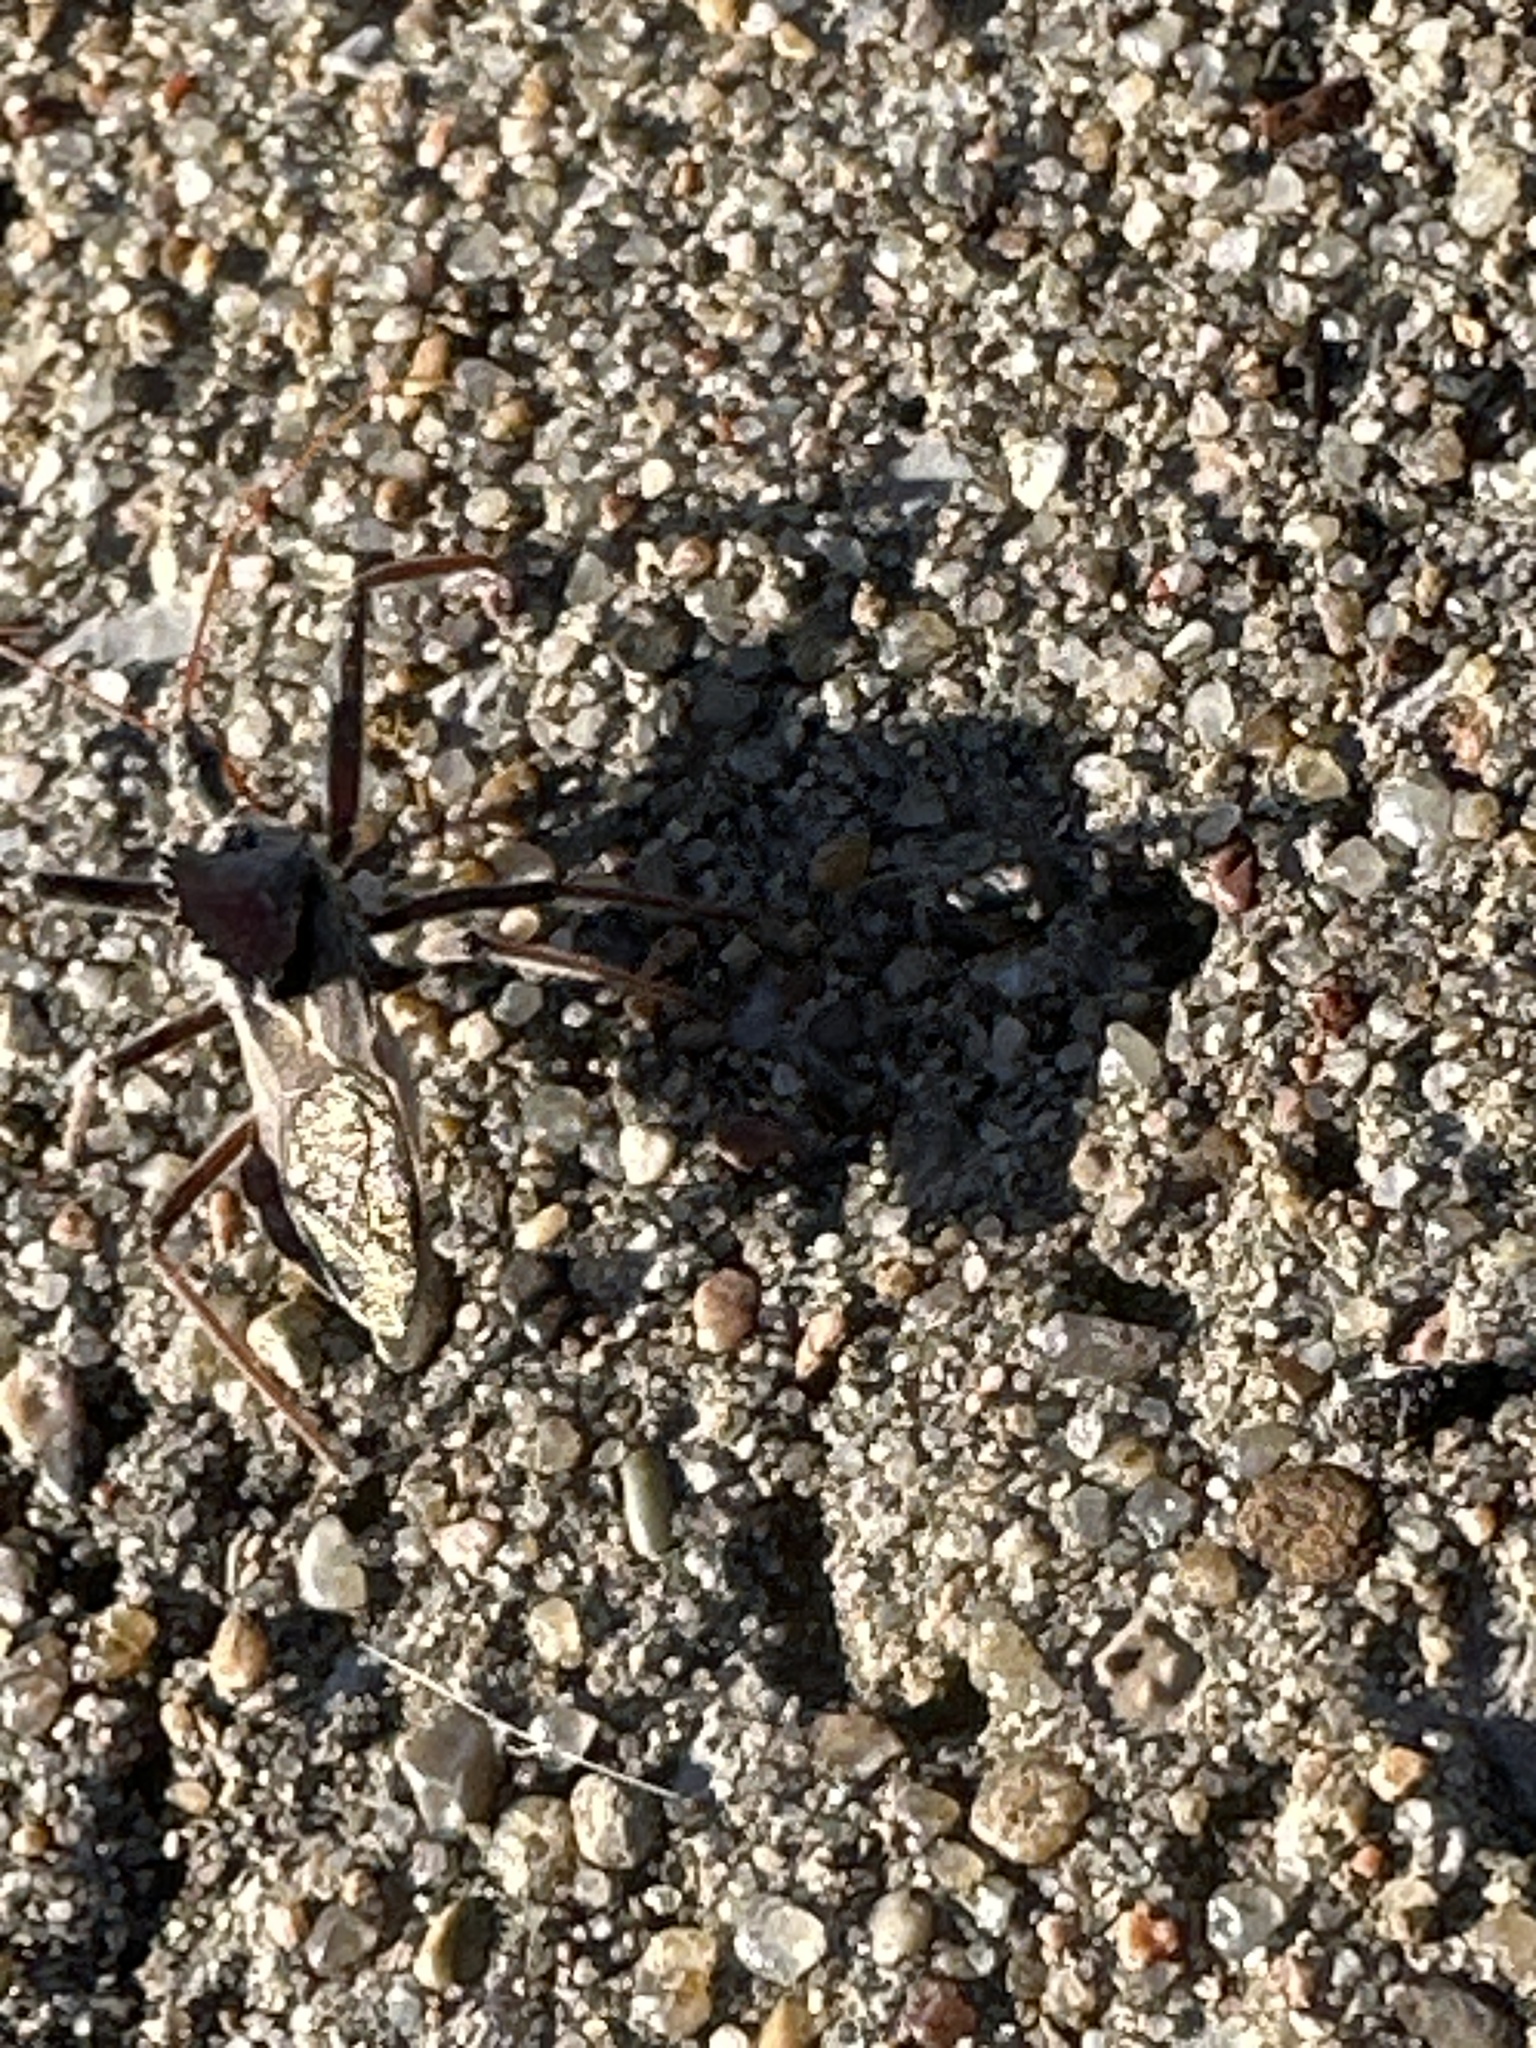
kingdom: Animalia
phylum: Arthropoda
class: Insecta
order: Hemiptera
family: Reduviidae
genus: Arilus
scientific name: Arilus cristatus
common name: North american wheel bug
